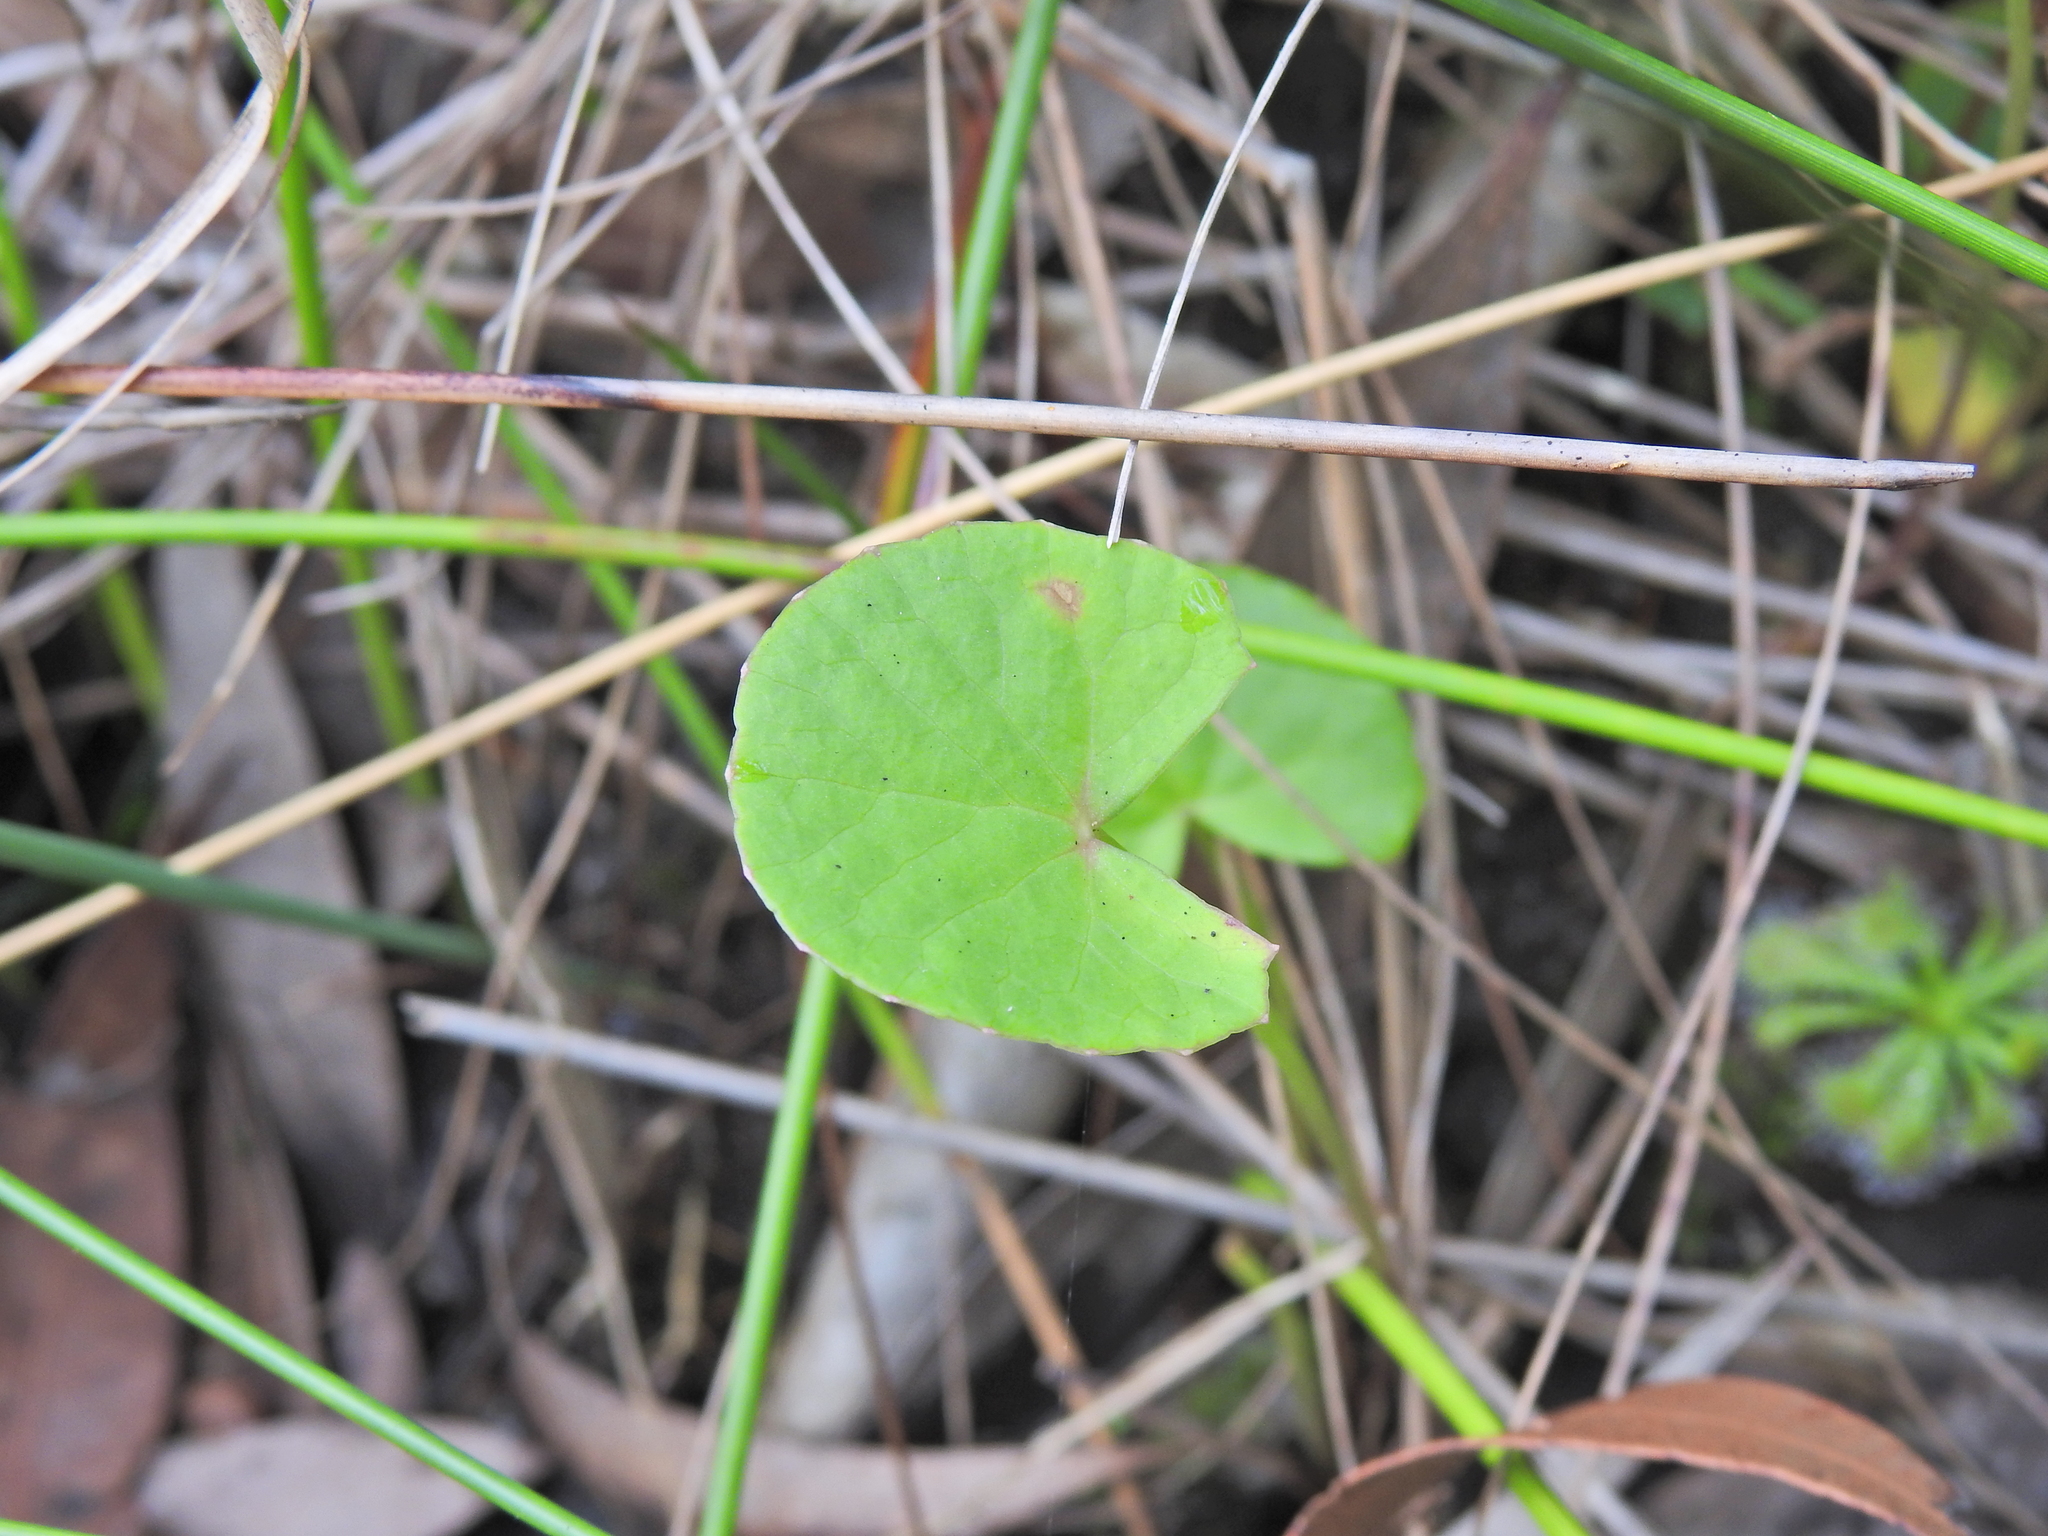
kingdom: Plantae
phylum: Tracheophyta
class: Magnoliopsida
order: Apiales
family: Apiaceae
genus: Centella
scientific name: Centella asiatica
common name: Spadeleaf
